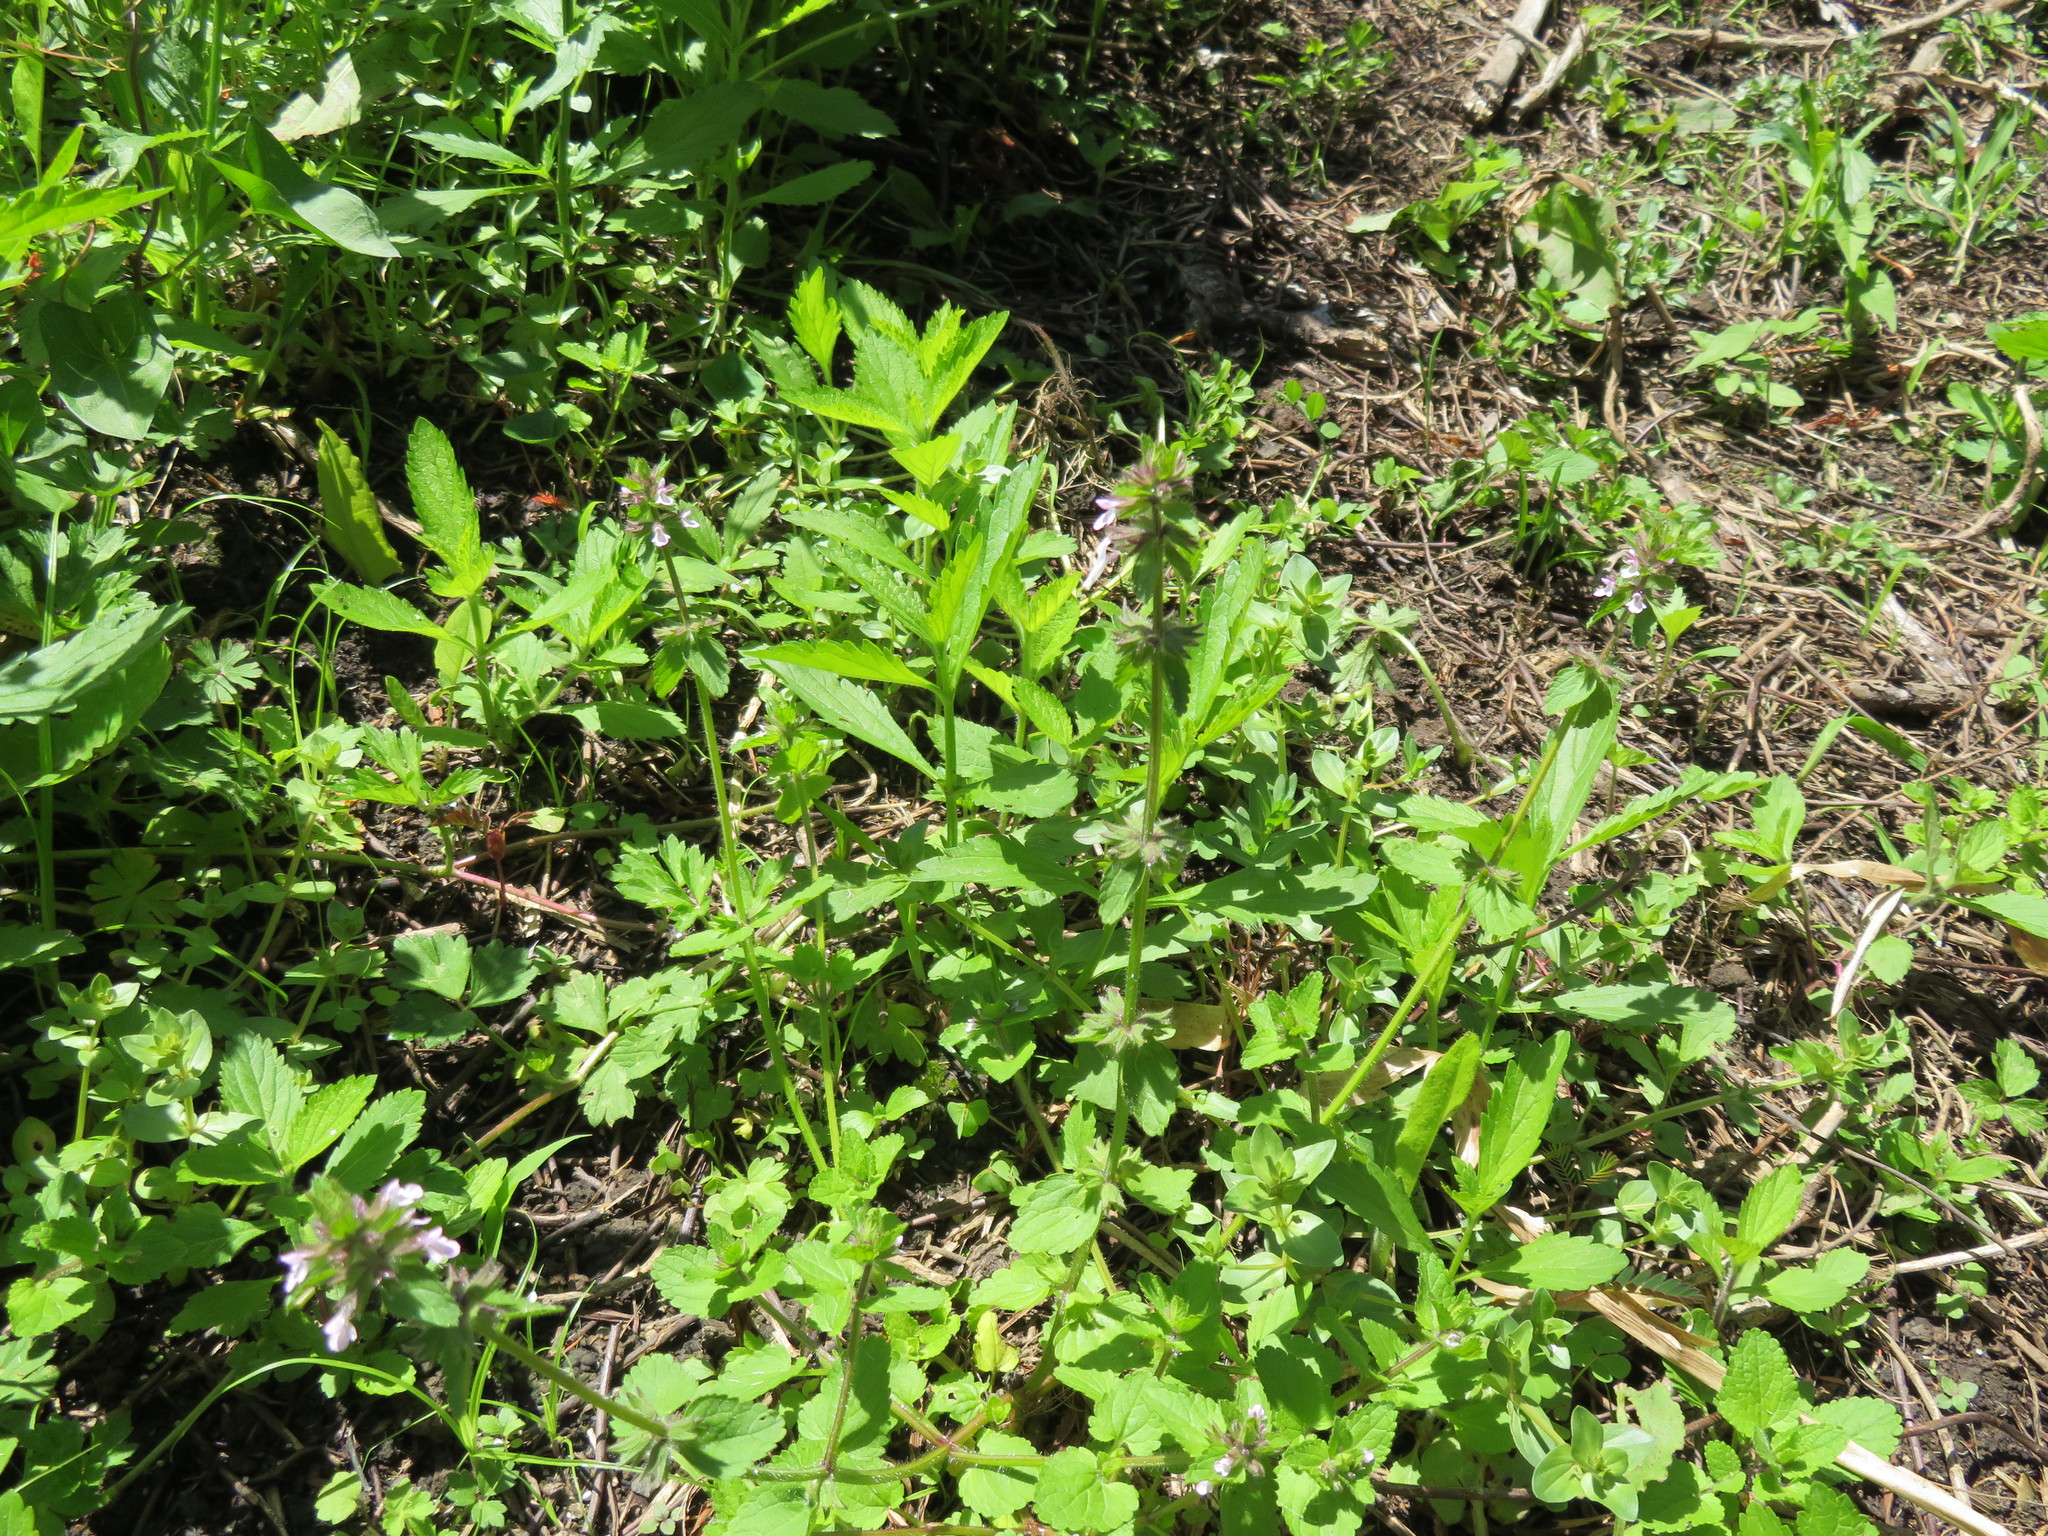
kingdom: Plantae
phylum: Tracheophyta
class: Magnoliopsida
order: Lamiales
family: Verbenaceae
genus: Verbena
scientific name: Verbena litoralis
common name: Seashore vervain
